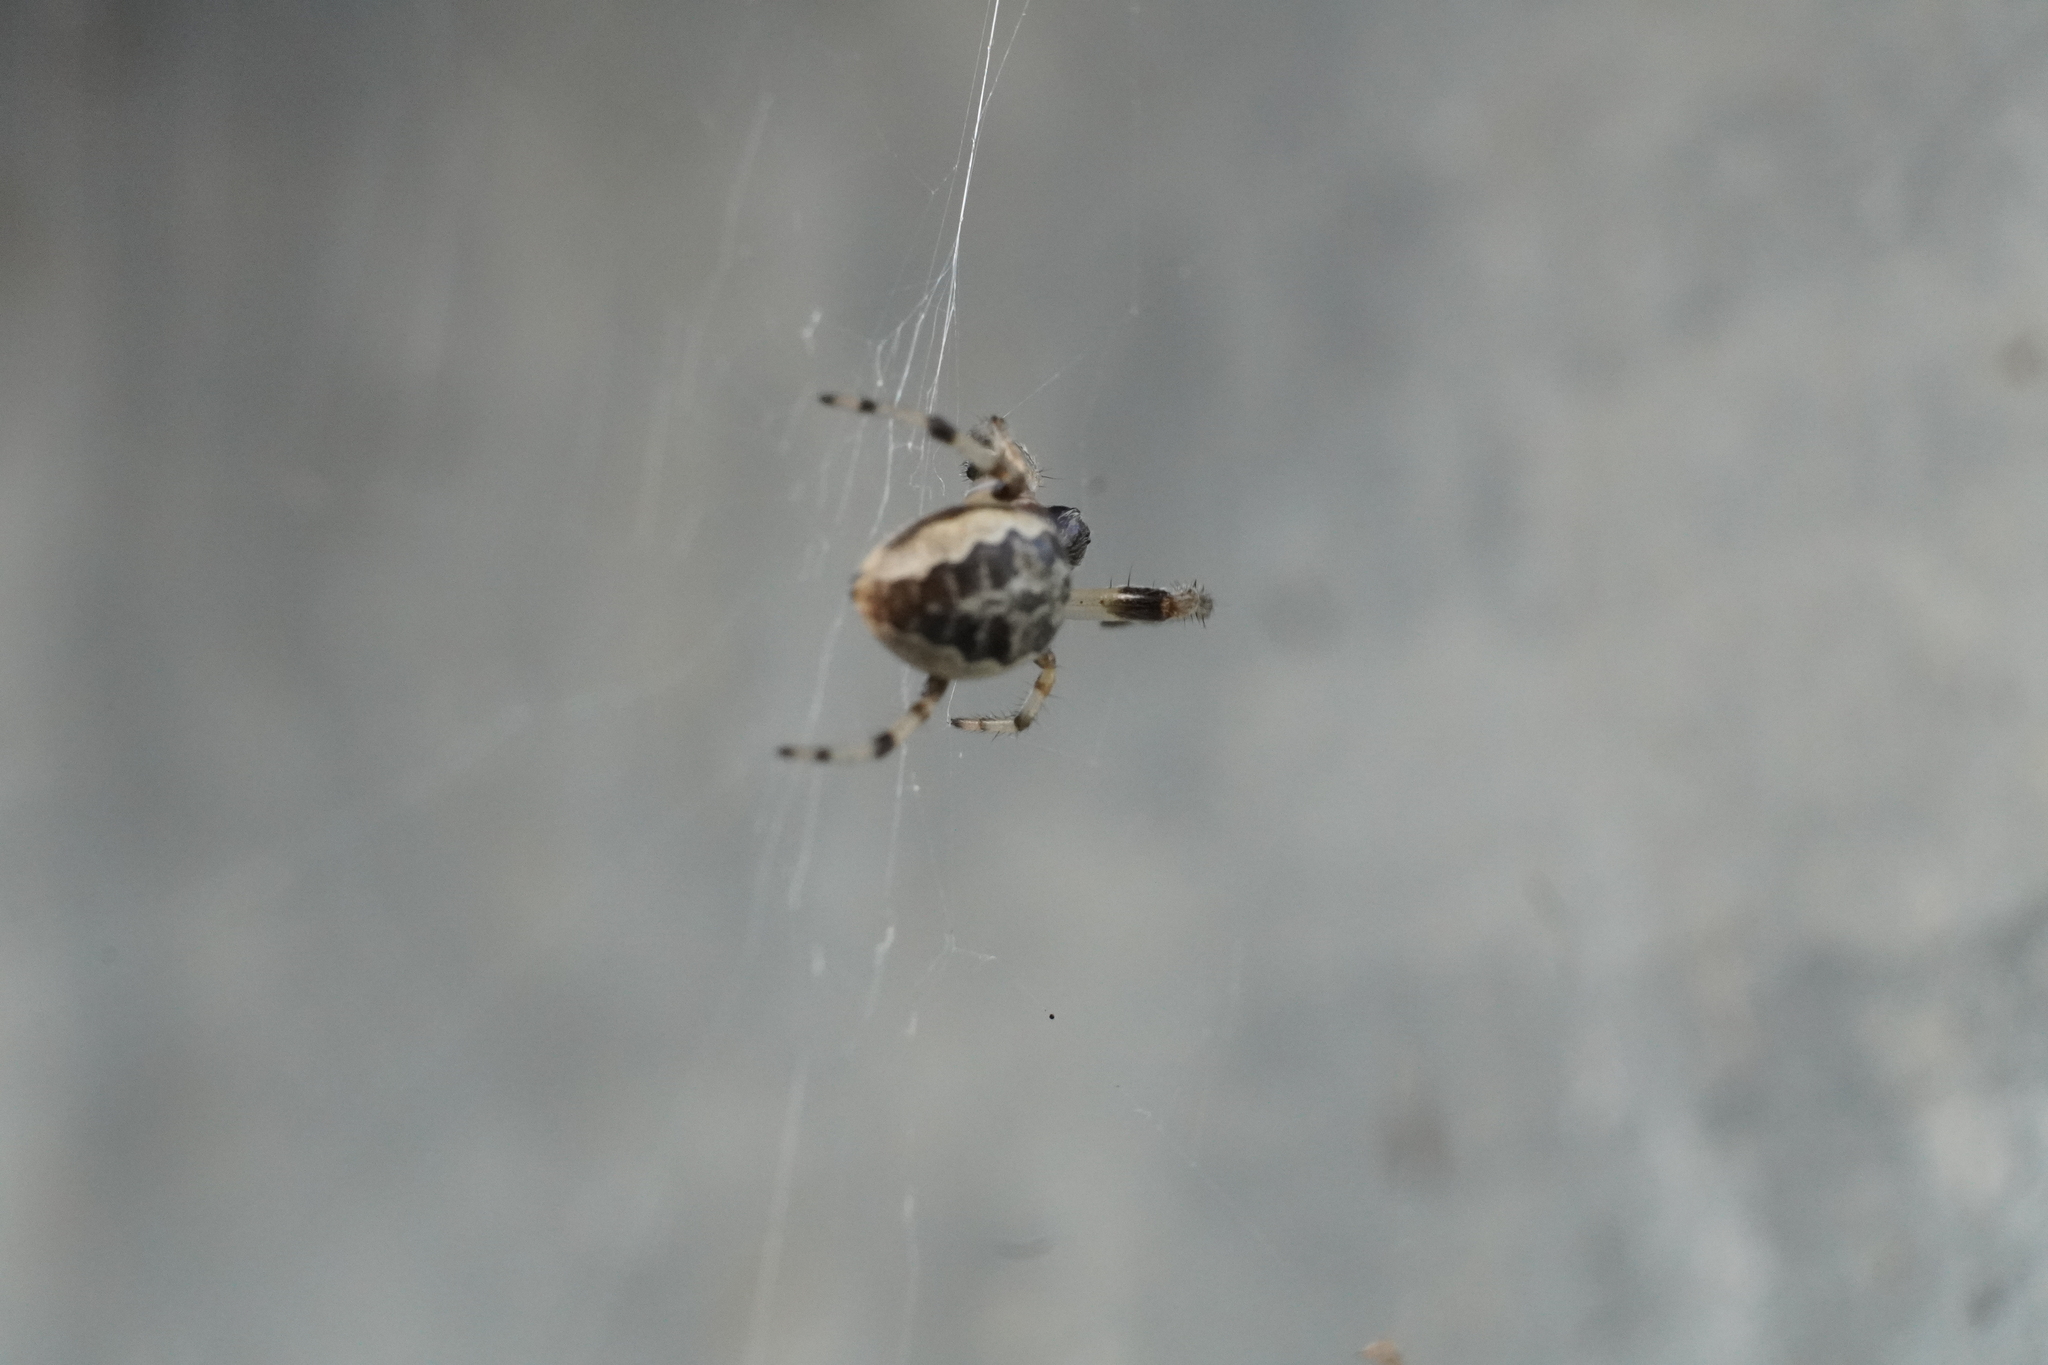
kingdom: Animalia
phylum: Arthropoda
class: Arachnida
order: Araneae
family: Araneidae
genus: Larinioides
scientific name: Larinioides cornutus
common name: Furrow orbweaver
